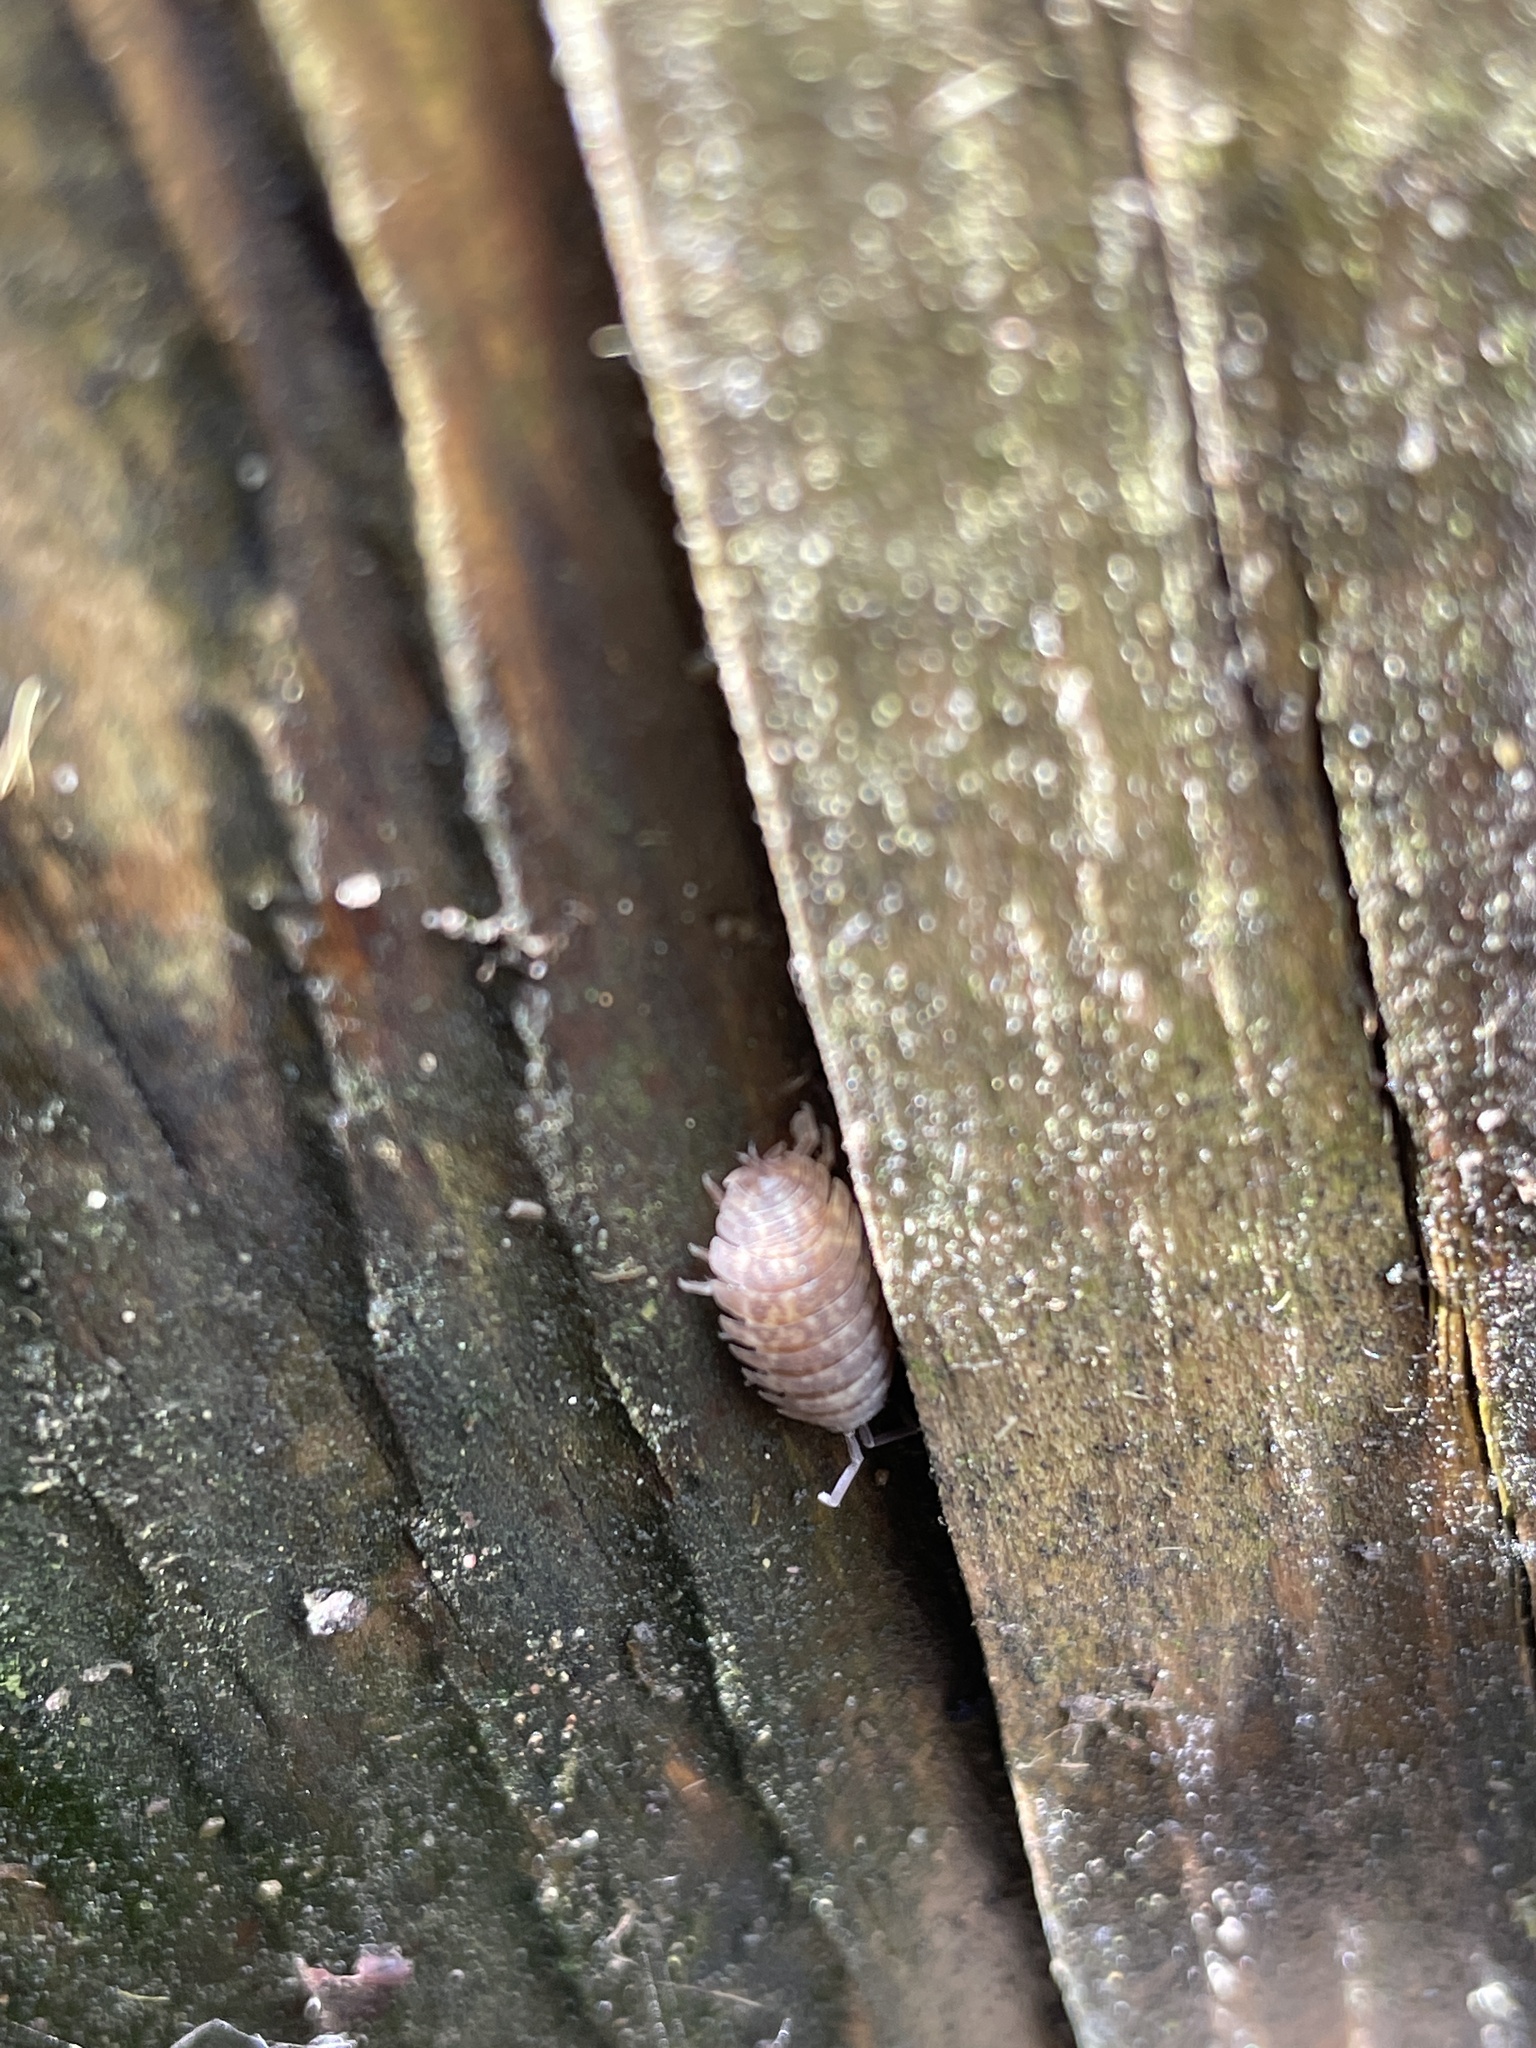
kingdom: Animalia
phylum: Arthropoda
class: Malacostraca
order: Isopoda
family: Porcellionidae
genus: Porcellio
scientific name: Porcellio scaber
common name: Common rough woodlouse
